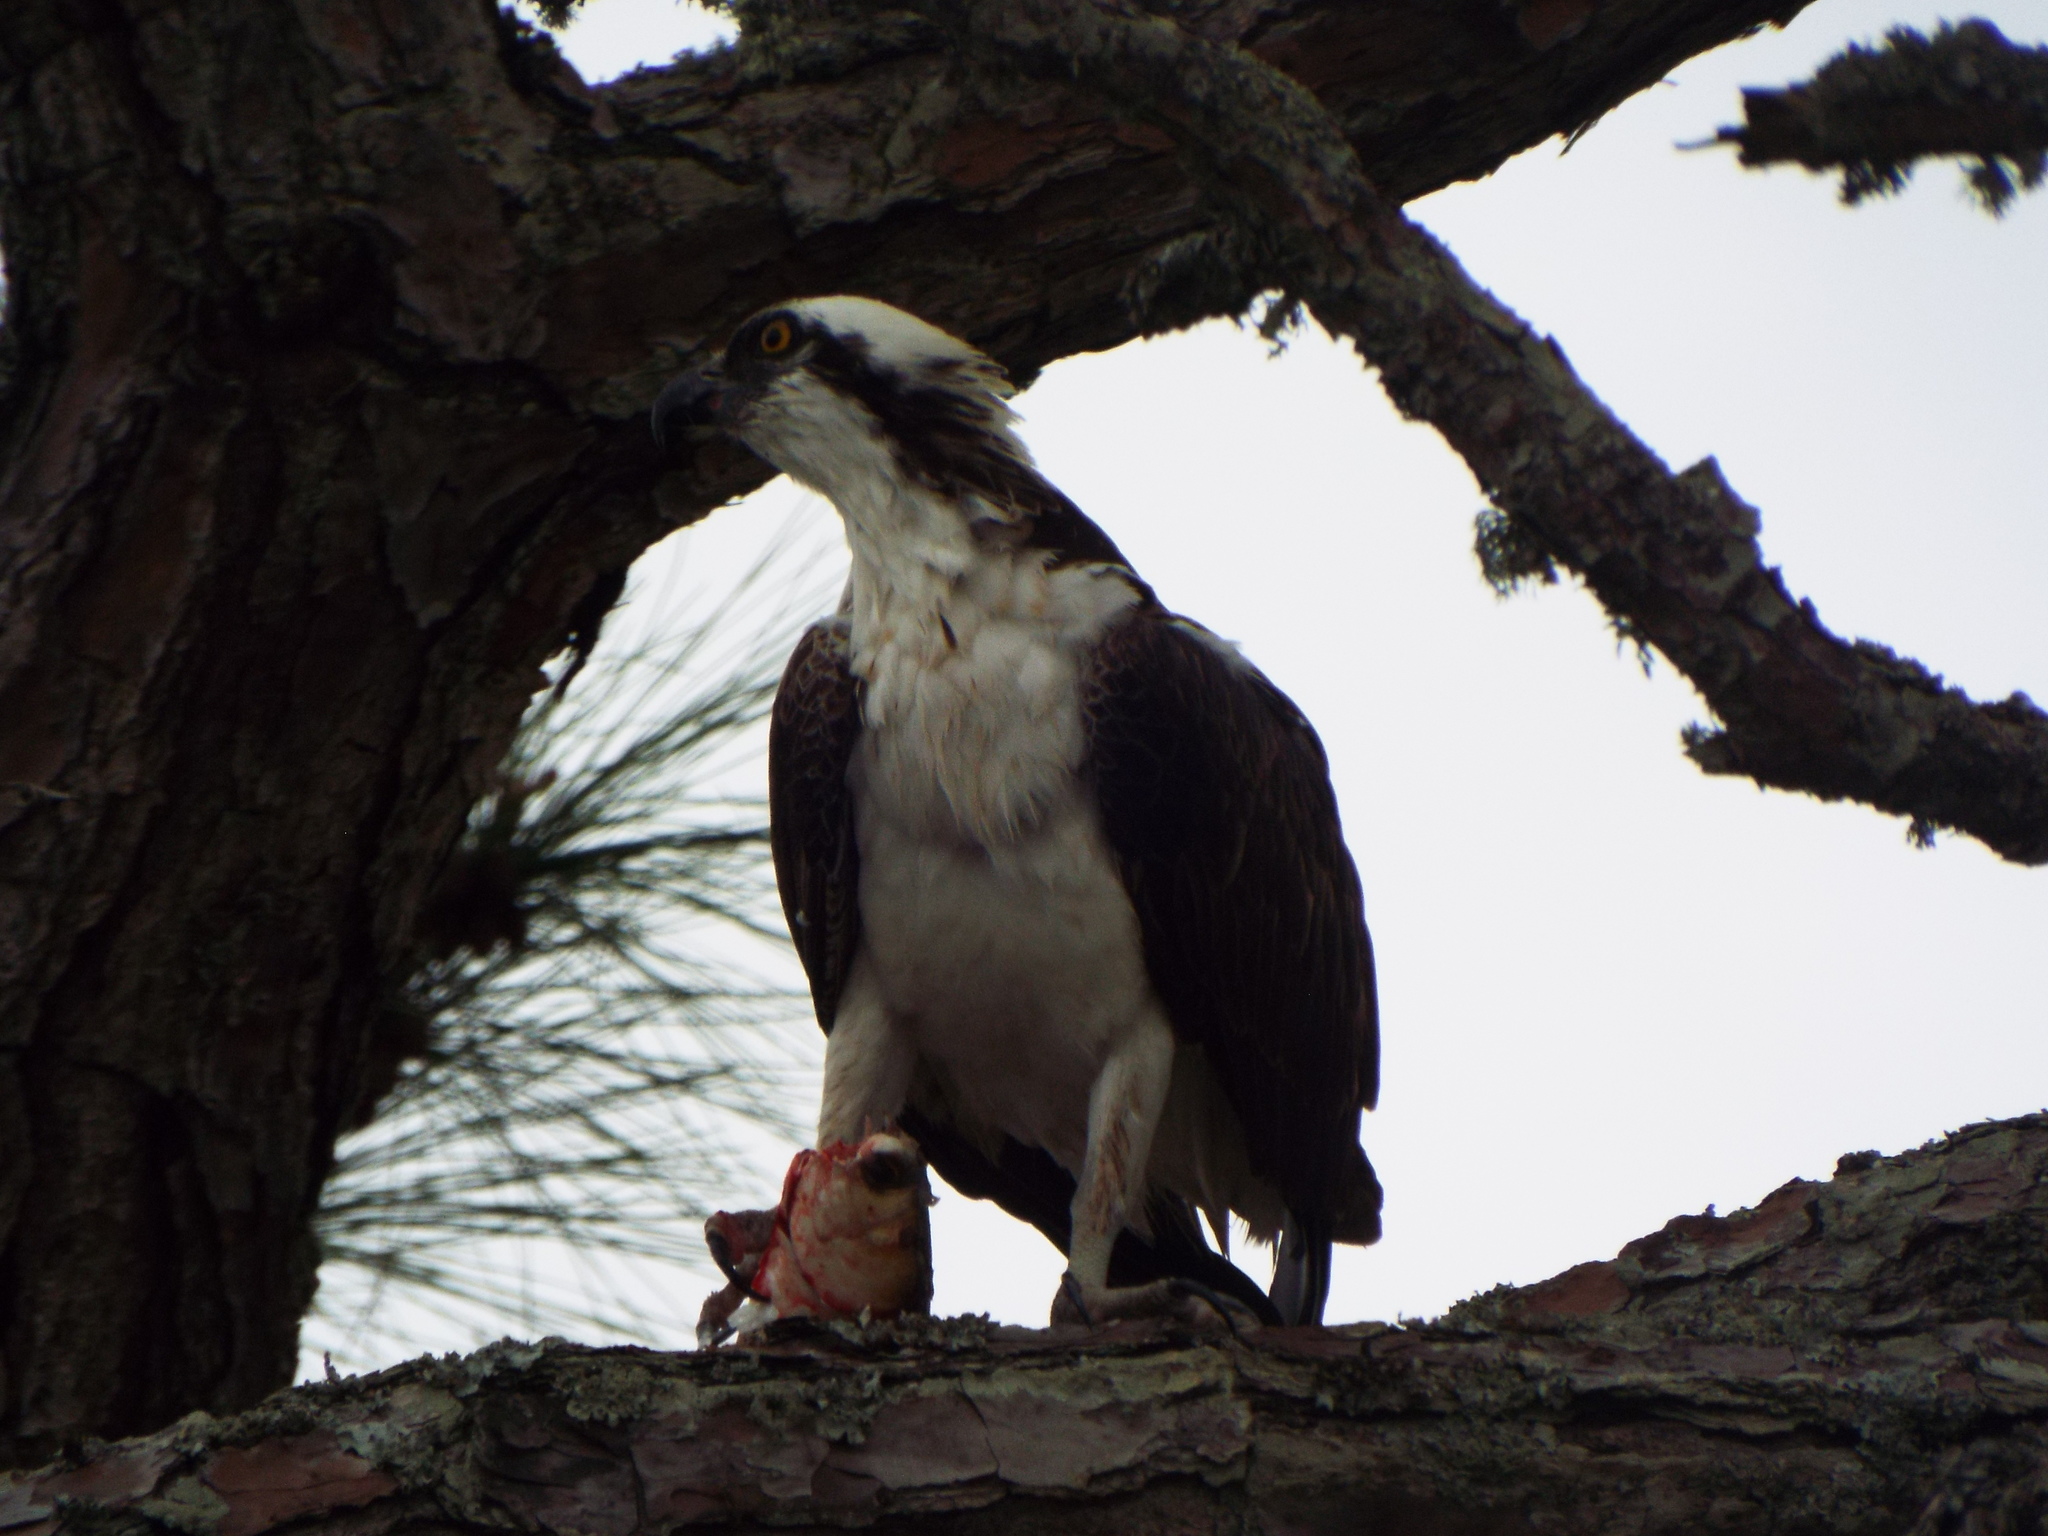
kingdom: Animalia
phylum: Chordata
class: Aves
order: Accipitriformes
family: Pandionidae
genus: Pandion
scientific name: Pandion haliaetus
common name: Osprey
